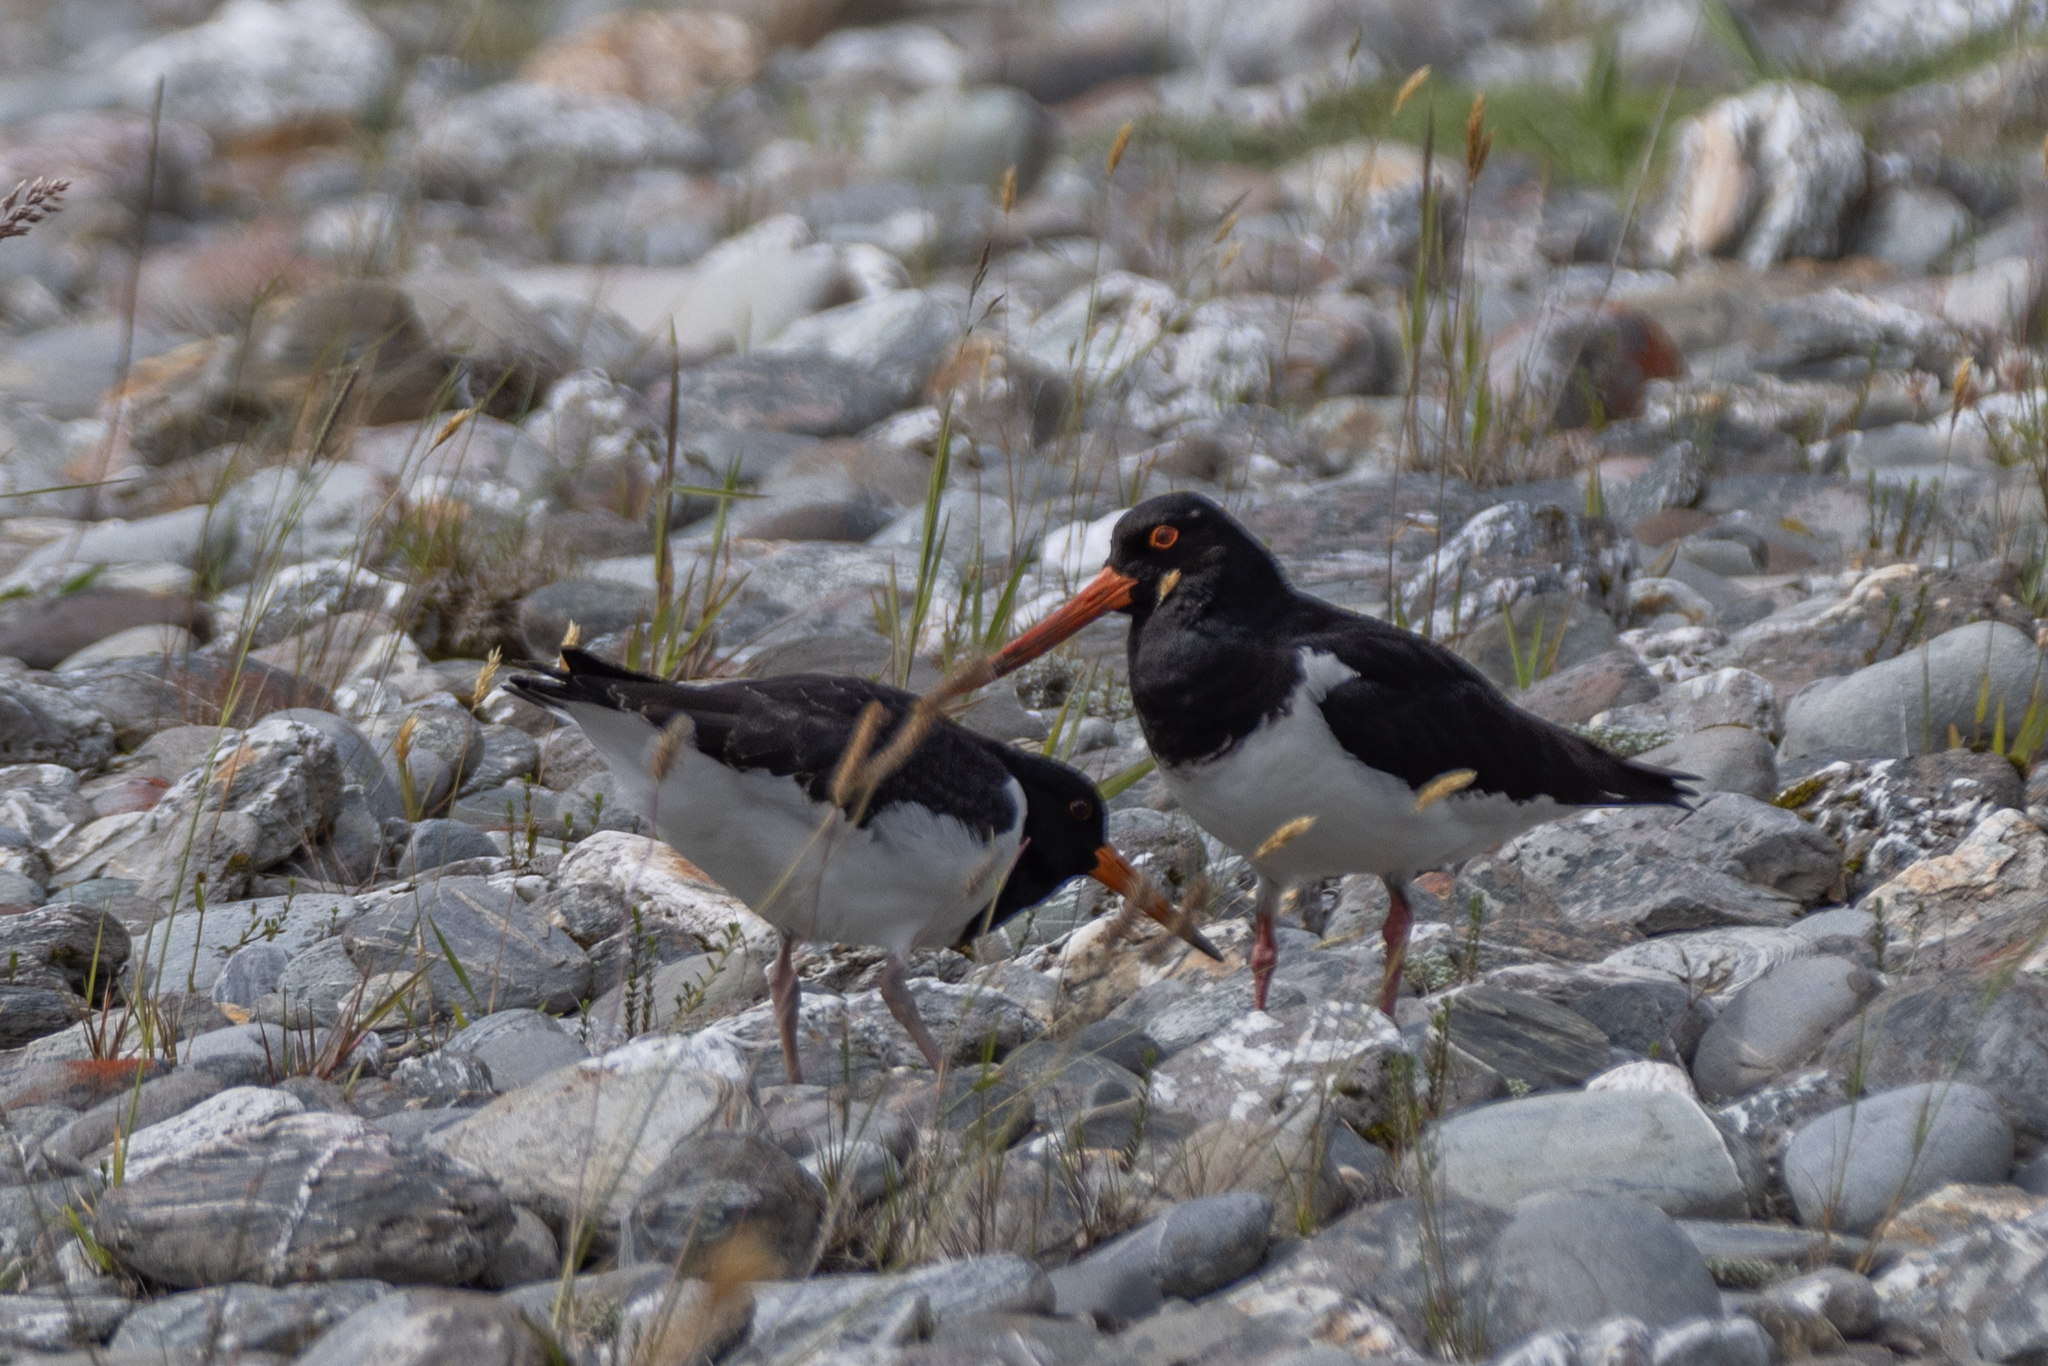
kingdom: Animalia
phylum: Chordata
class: Aves
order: Charadriiformes
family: Haematopodidae
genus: Haematopus
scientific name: Haematopus finschi
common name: South island oystercatcher
